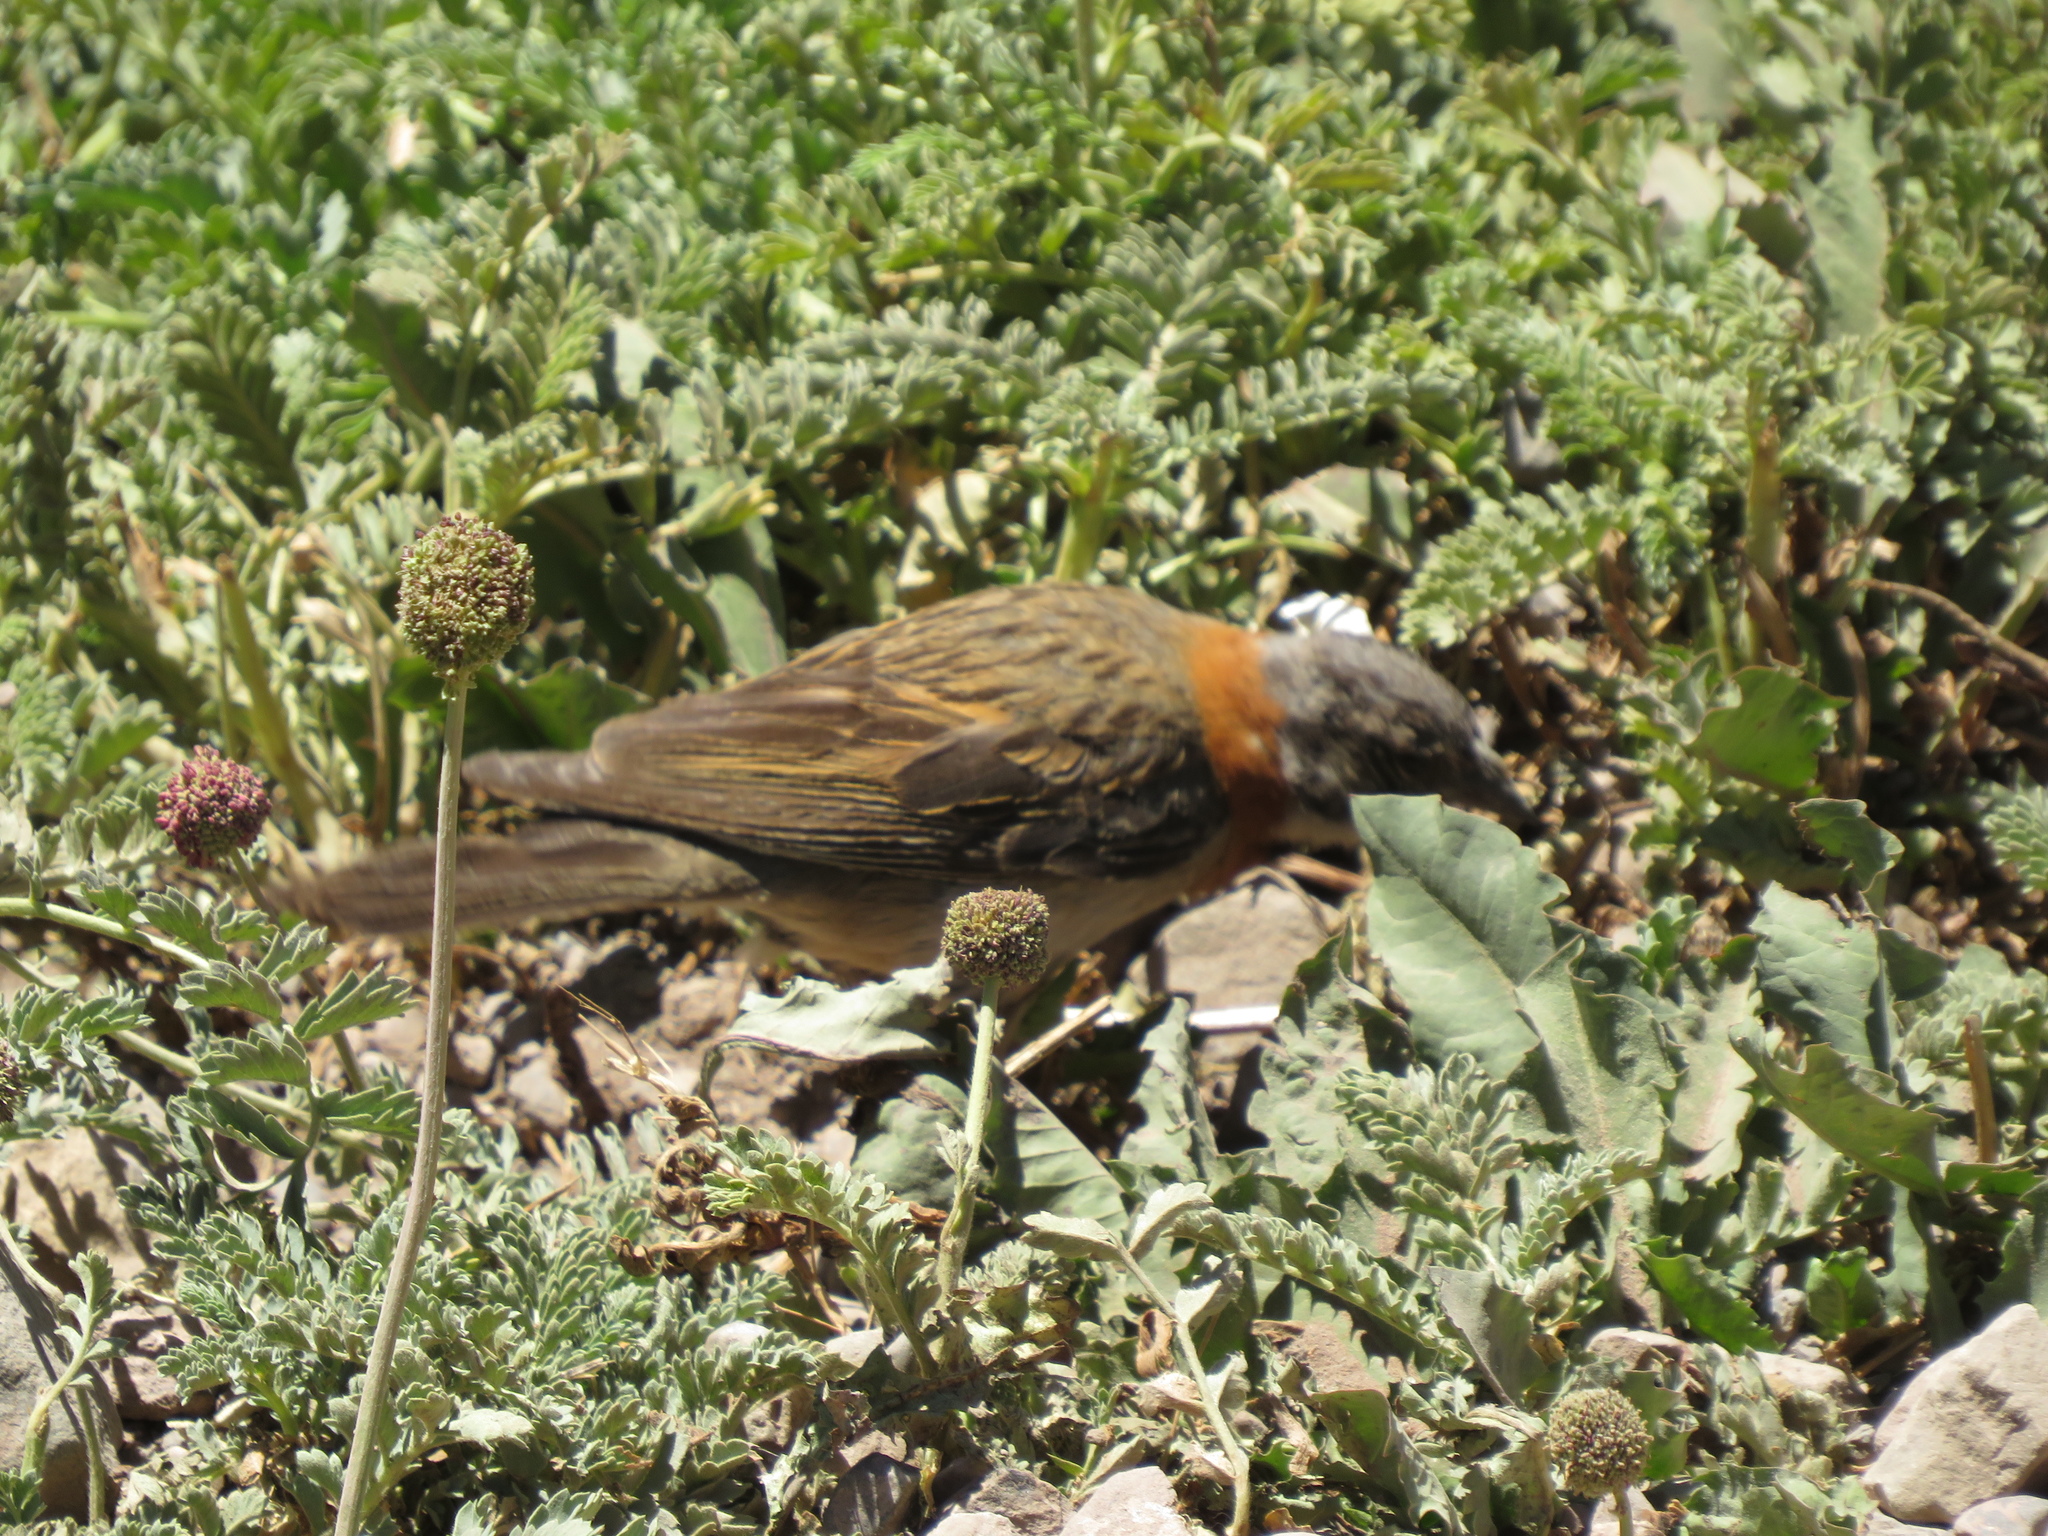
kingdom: Animalia
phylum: Chordata
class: Aves
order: Passeriformes
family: Passerellidae
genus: Zonotrichia
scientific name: Zonotrichia capensis
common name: Rufous-collared sparrow
